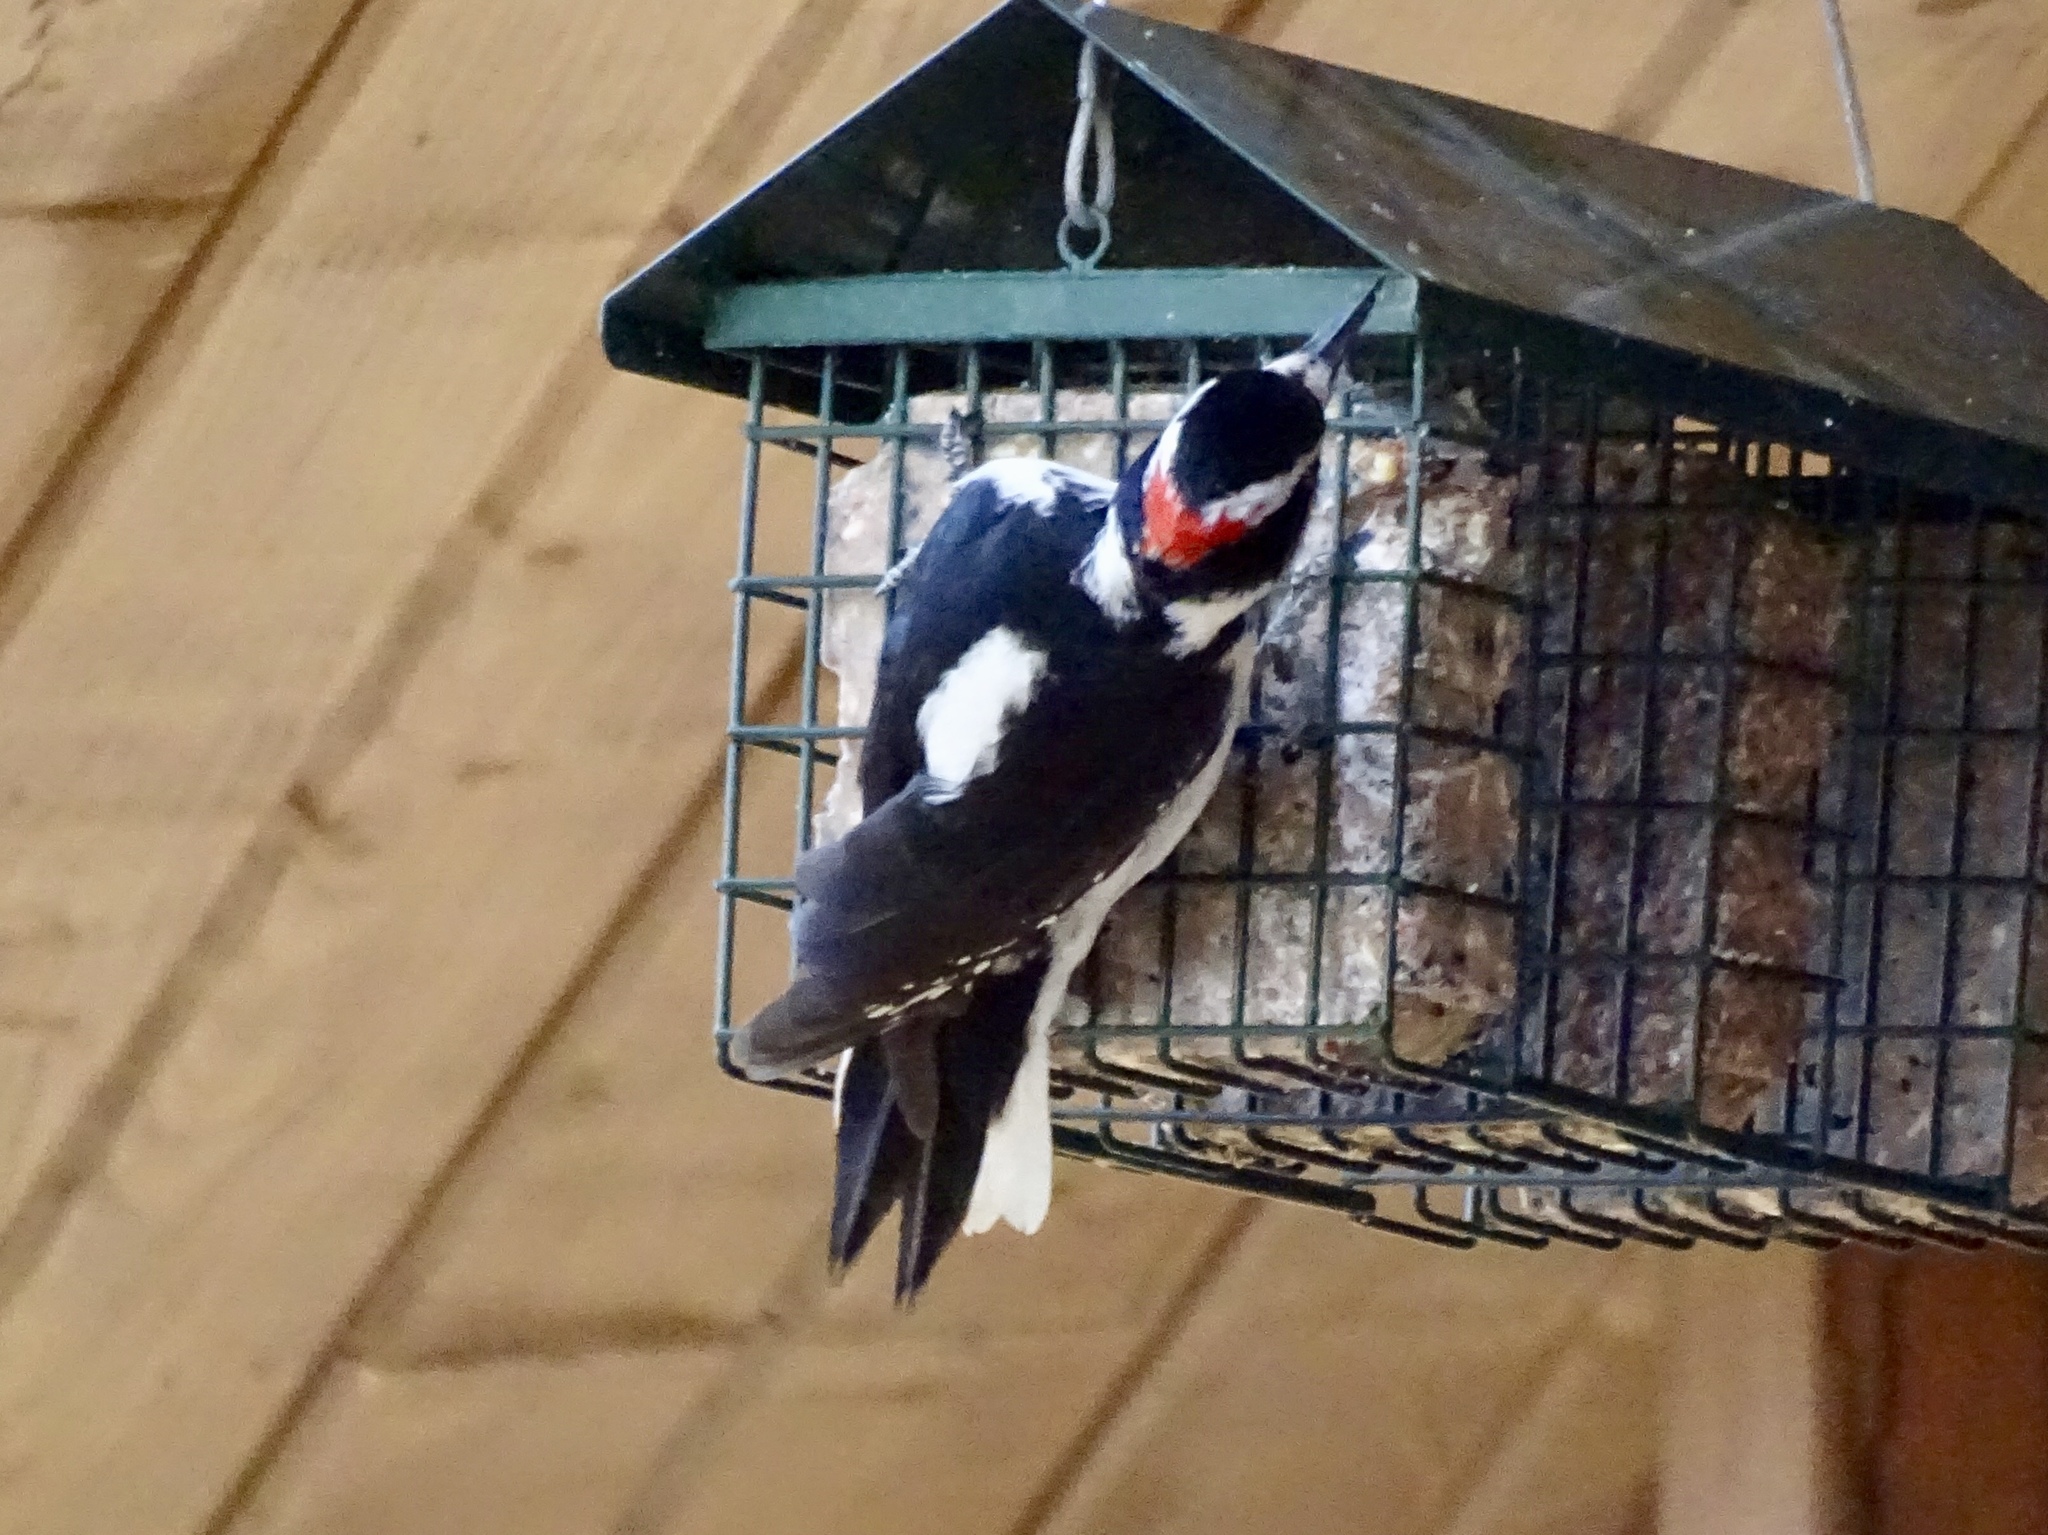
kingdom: Animalia
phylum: Chordata
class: Aves
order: Piciformes
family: Picidae
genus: Leuconotopicus
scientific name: Leuconotopicus villosus
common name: Hairy woodpecker
